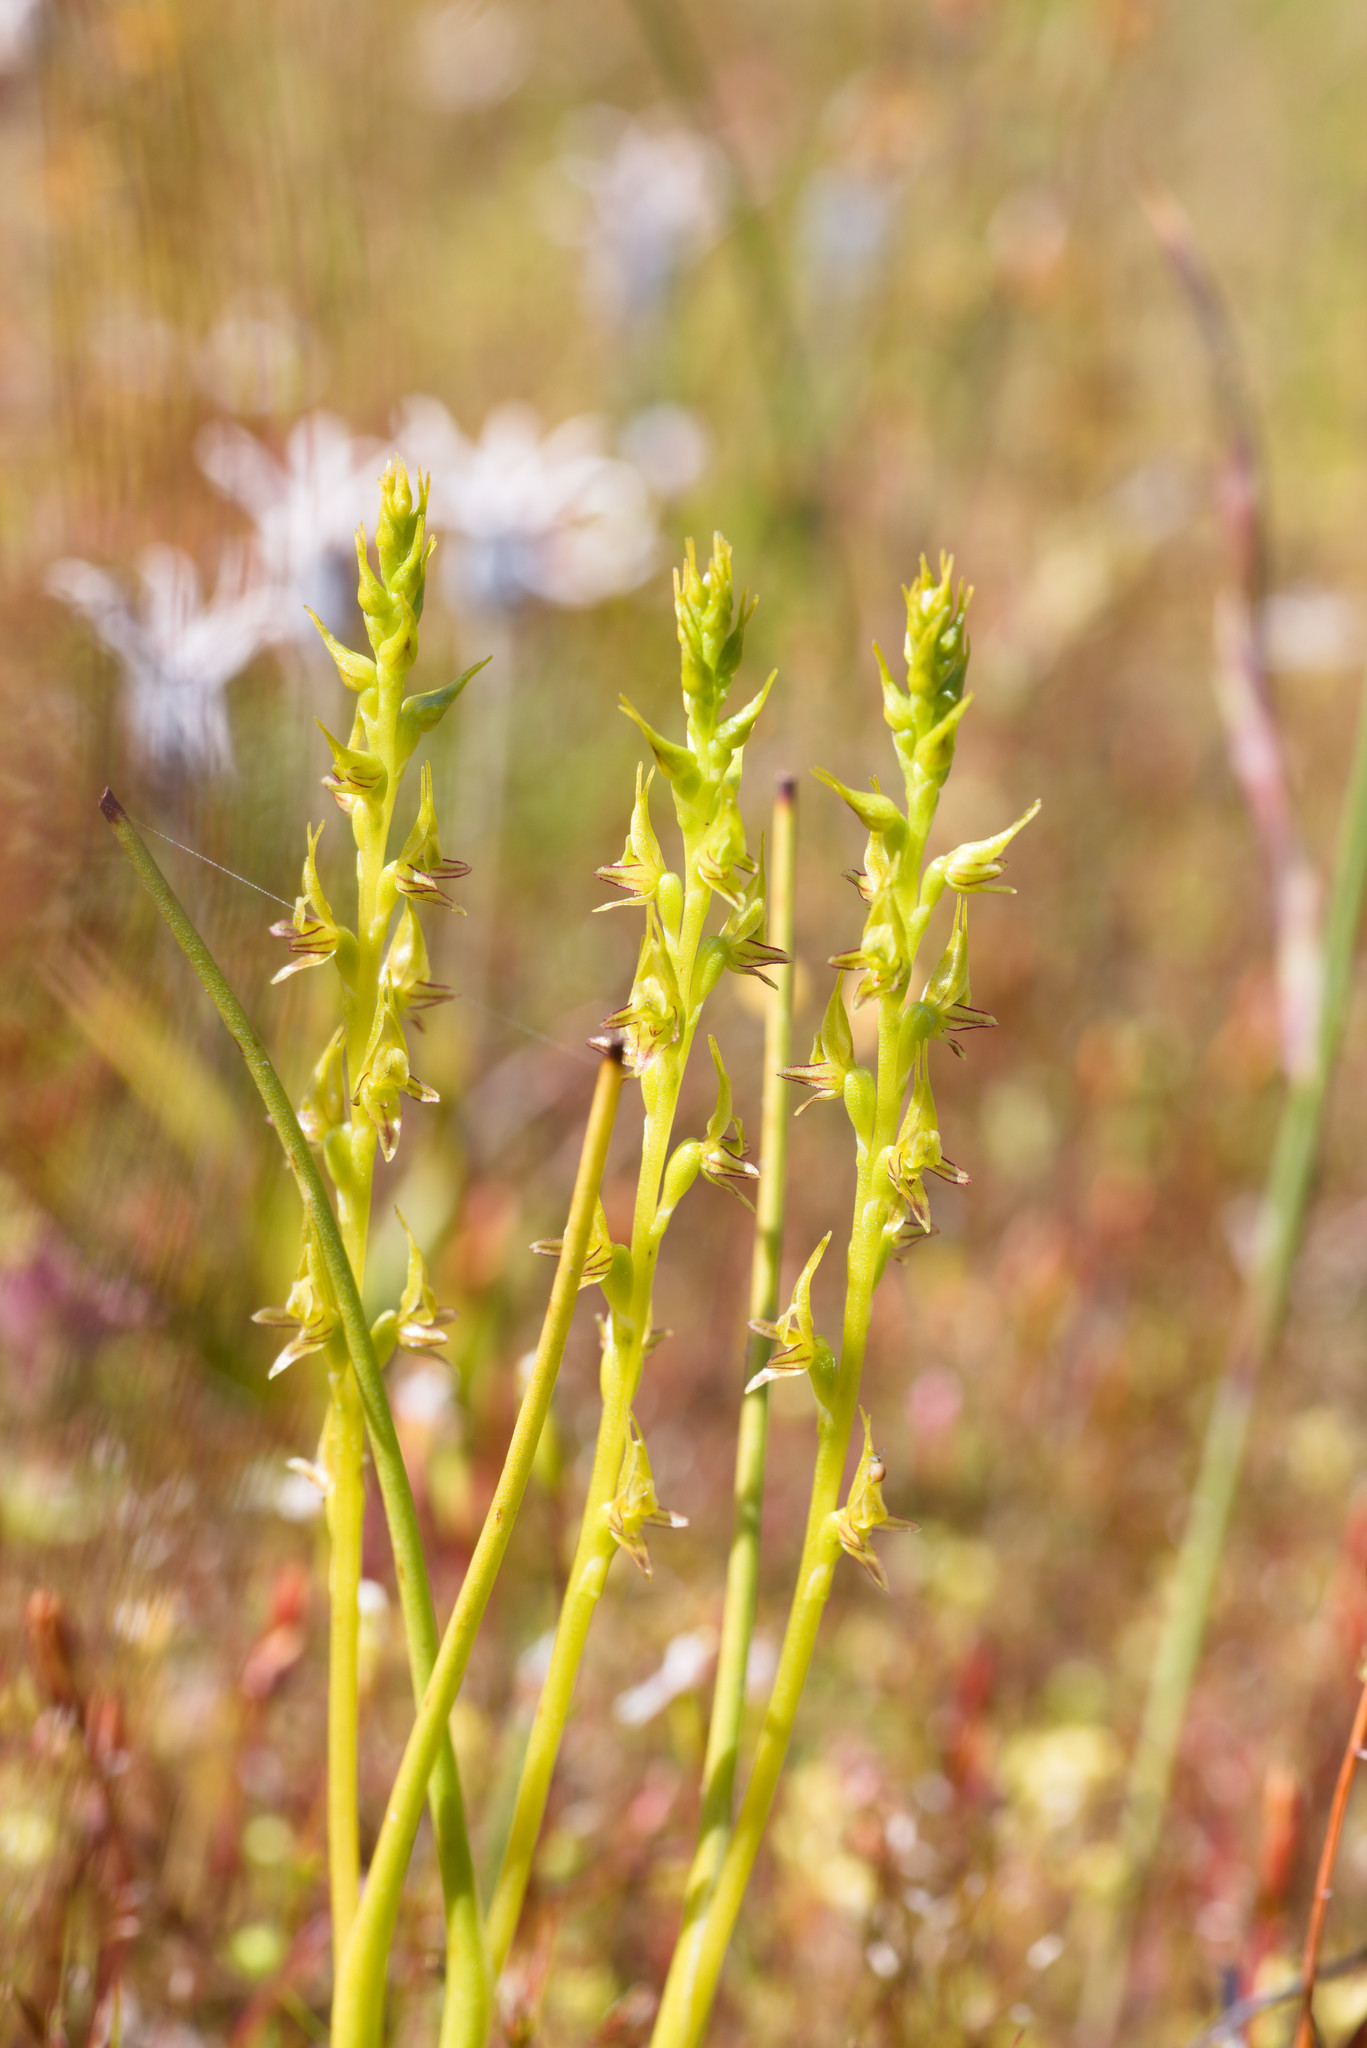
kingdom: Plantae
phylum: Tracheophyta
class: Liliopsida
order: Asparagales
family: Orchidaceae
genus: Prasophyllum
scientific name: Prasophyllum gracile
